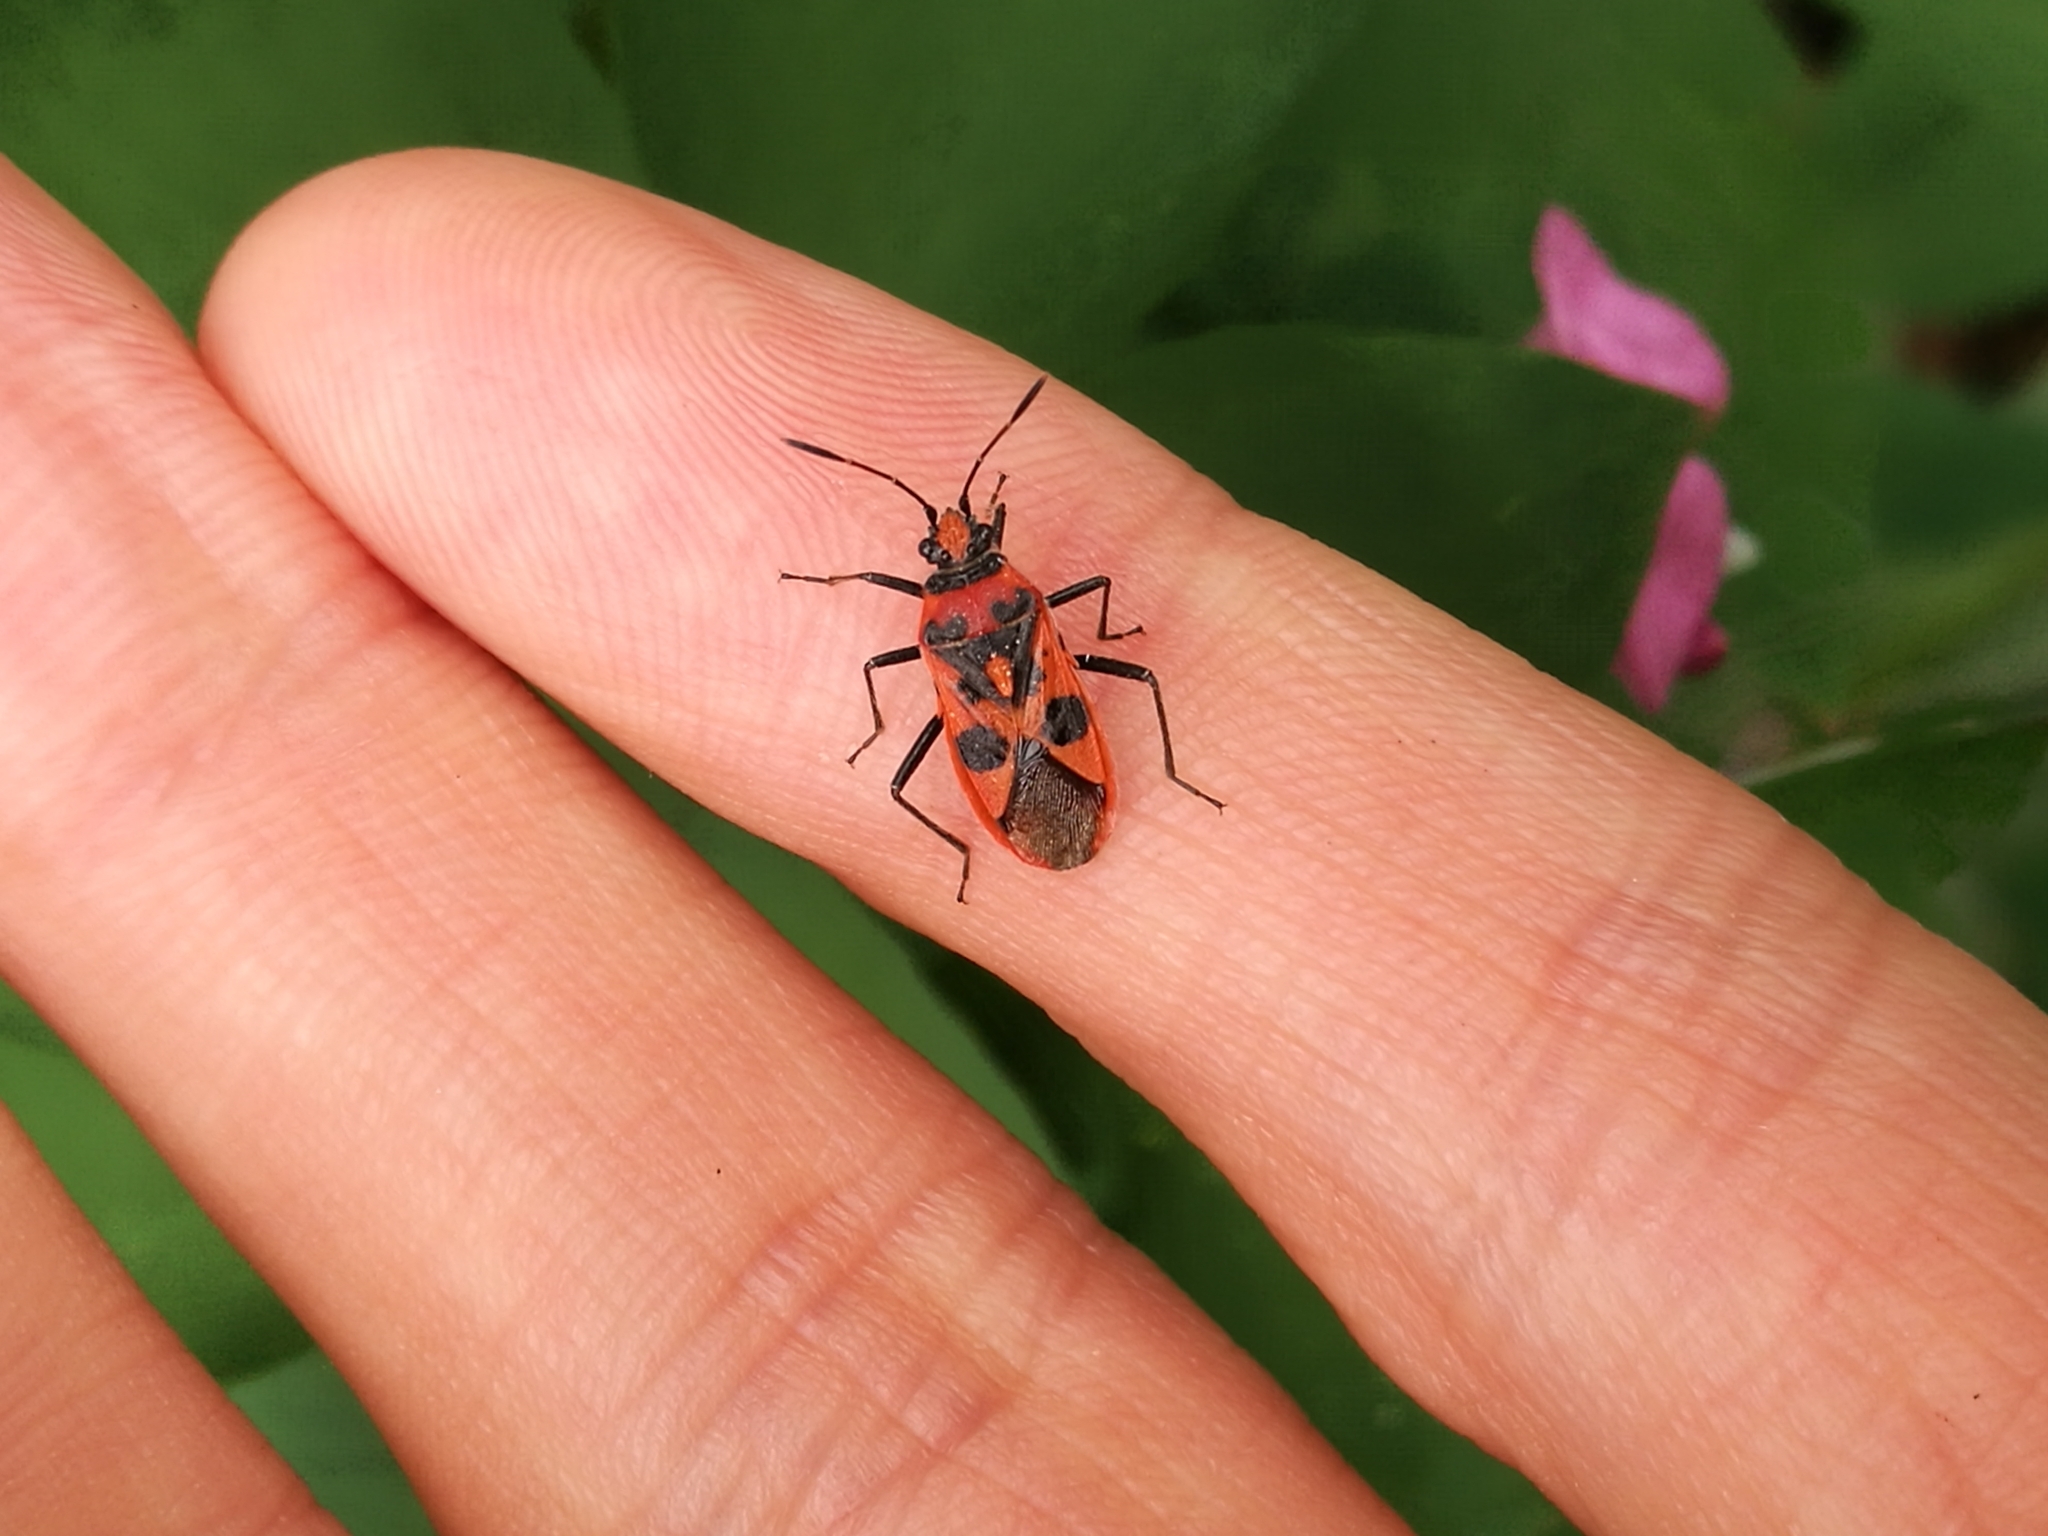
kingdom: Animalia
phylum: Arthropoda
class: Insecta
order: Hemiptera
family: Rhopalidae
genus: Corizus
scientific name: Corizus hyoscyami
